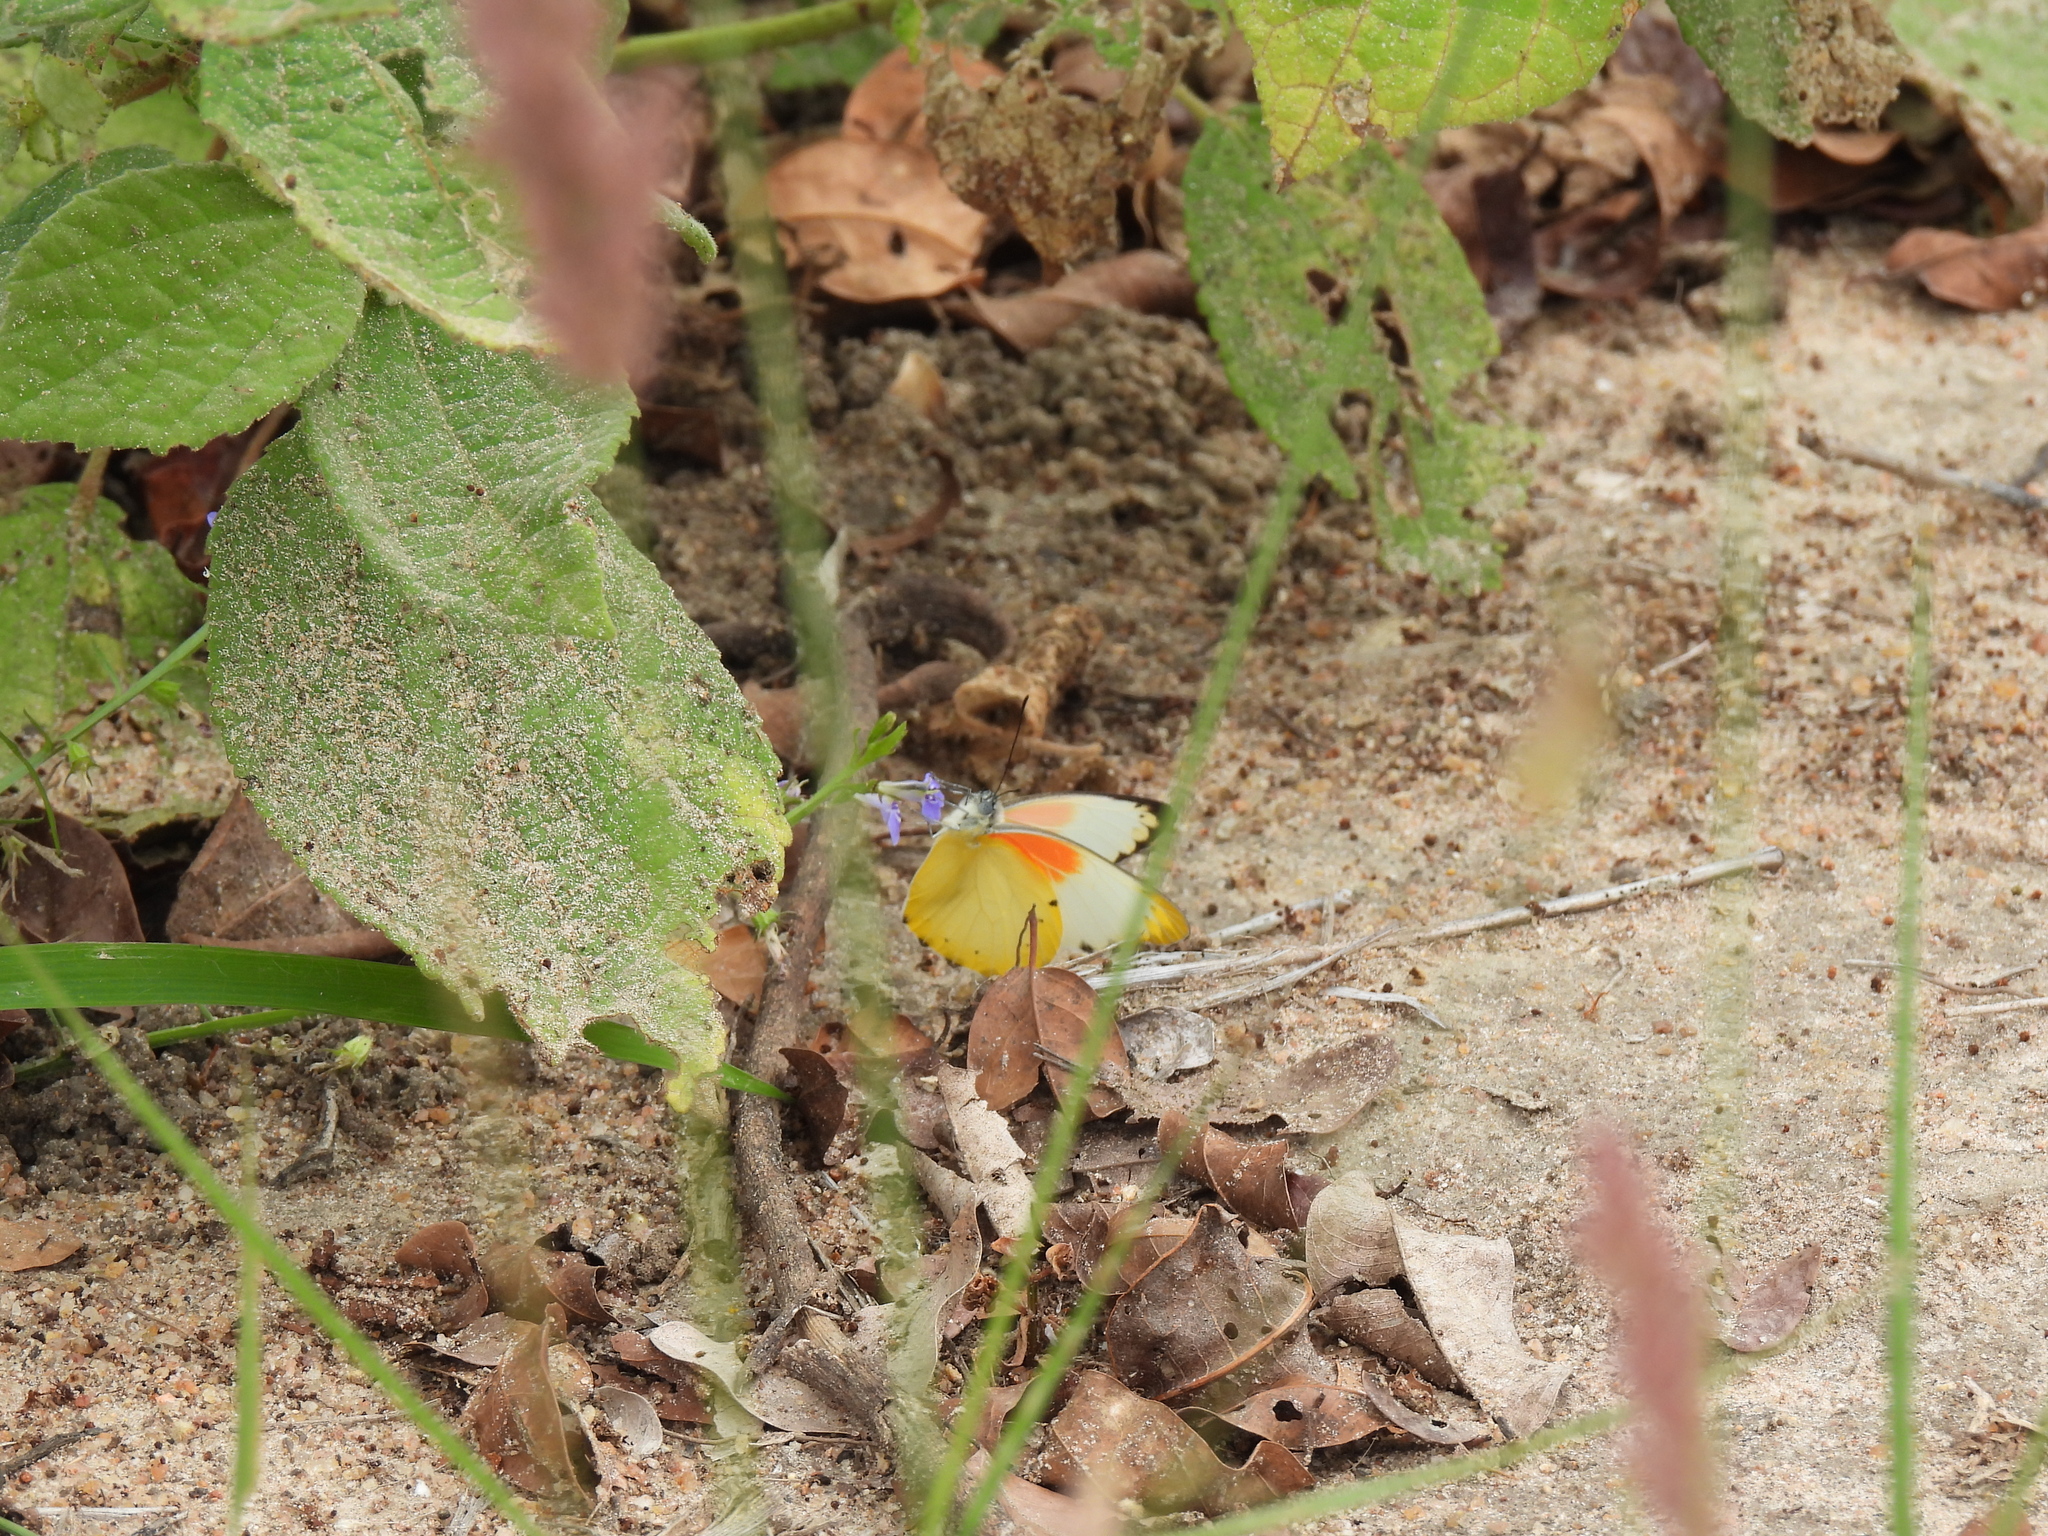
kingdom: Animalia
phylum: Arthropoda
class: Insecta
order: Lepidoptera
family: Pieridae
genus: Belenois
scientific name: Belenois thysa
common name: False dotted border
